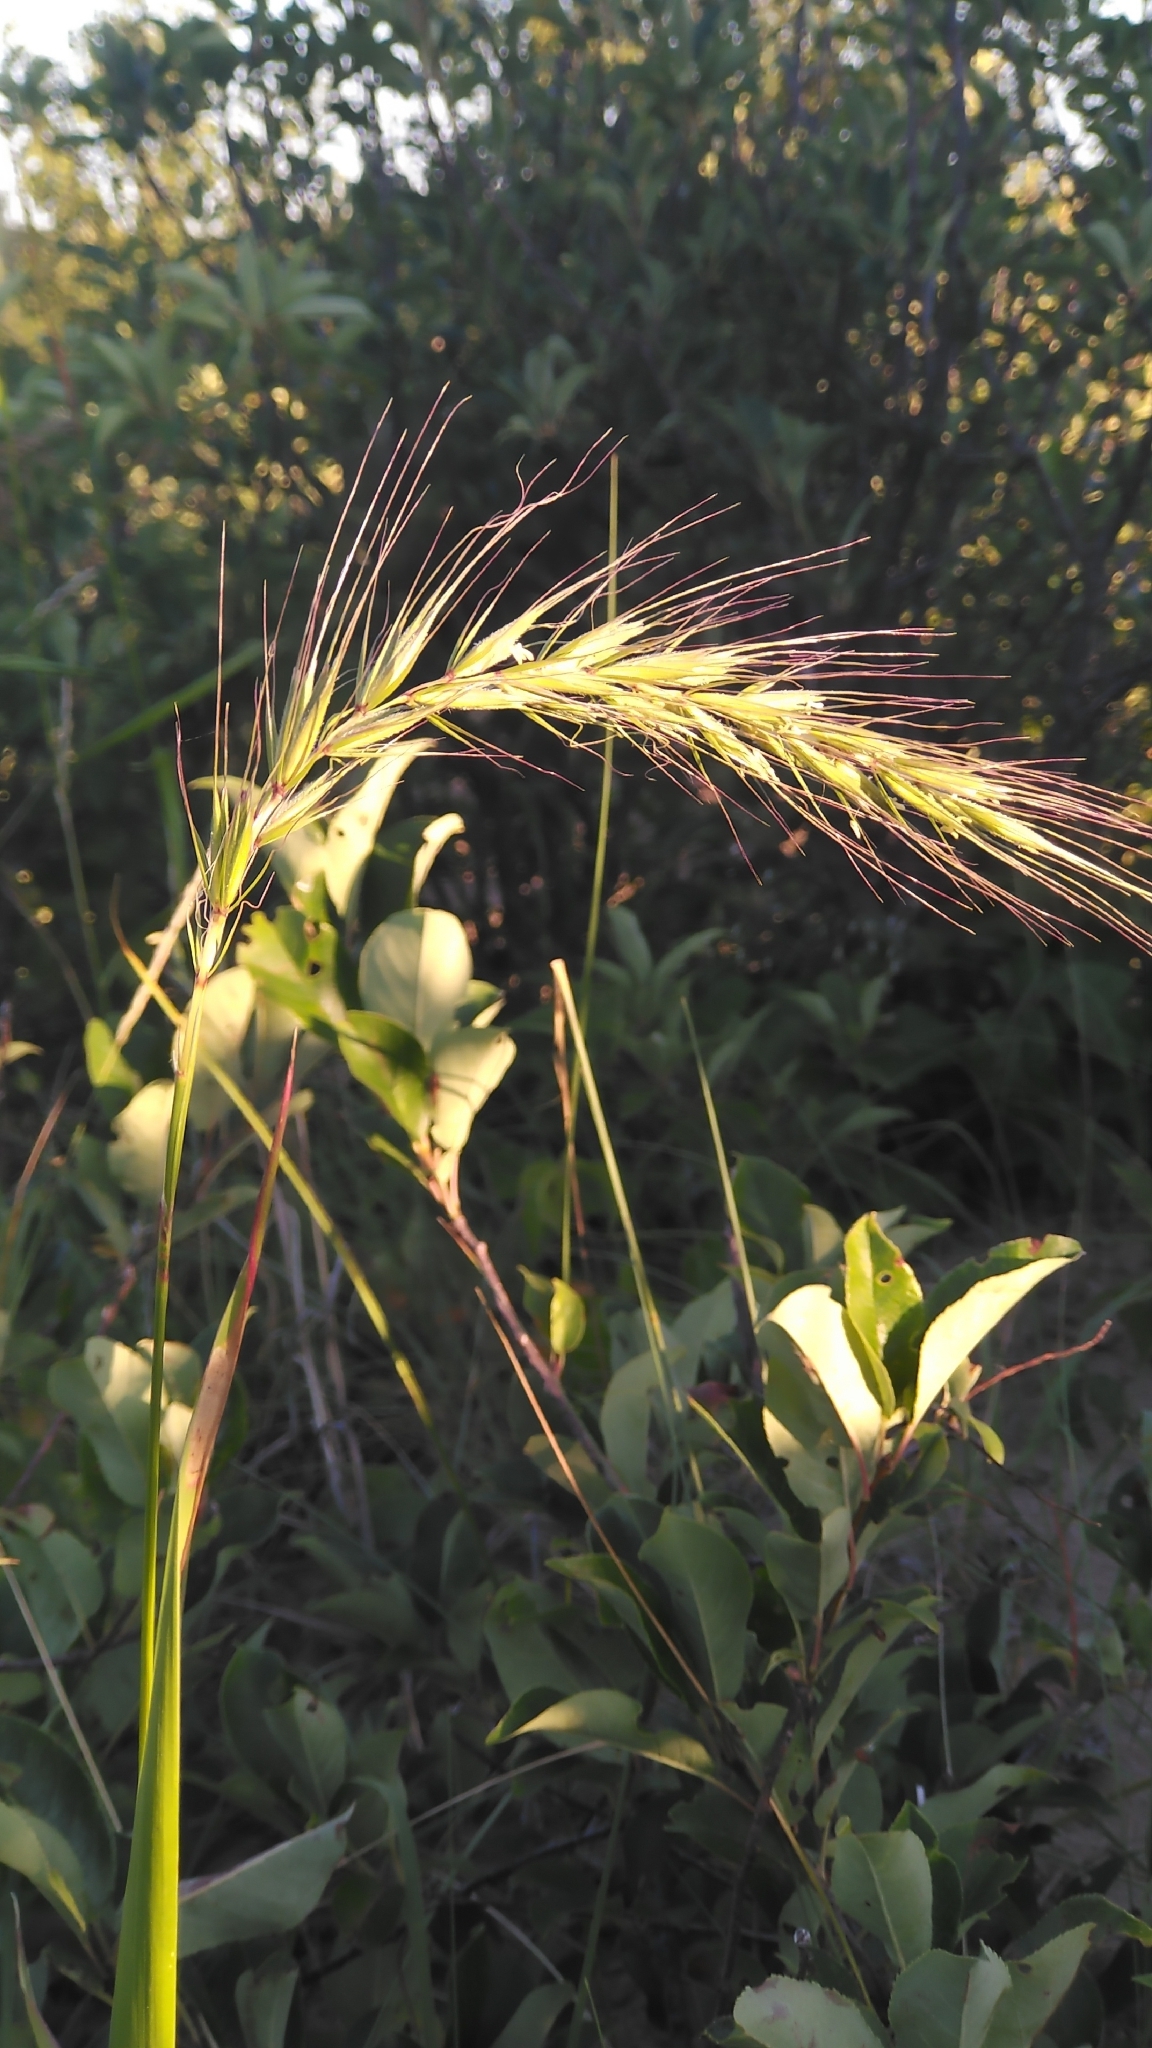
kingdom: Plantae
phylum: Tracheophyta
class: Liliopsida
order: Poales
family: Poaceae
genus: Elymus
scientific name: Elymus canadensis
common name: Canada wild rye
